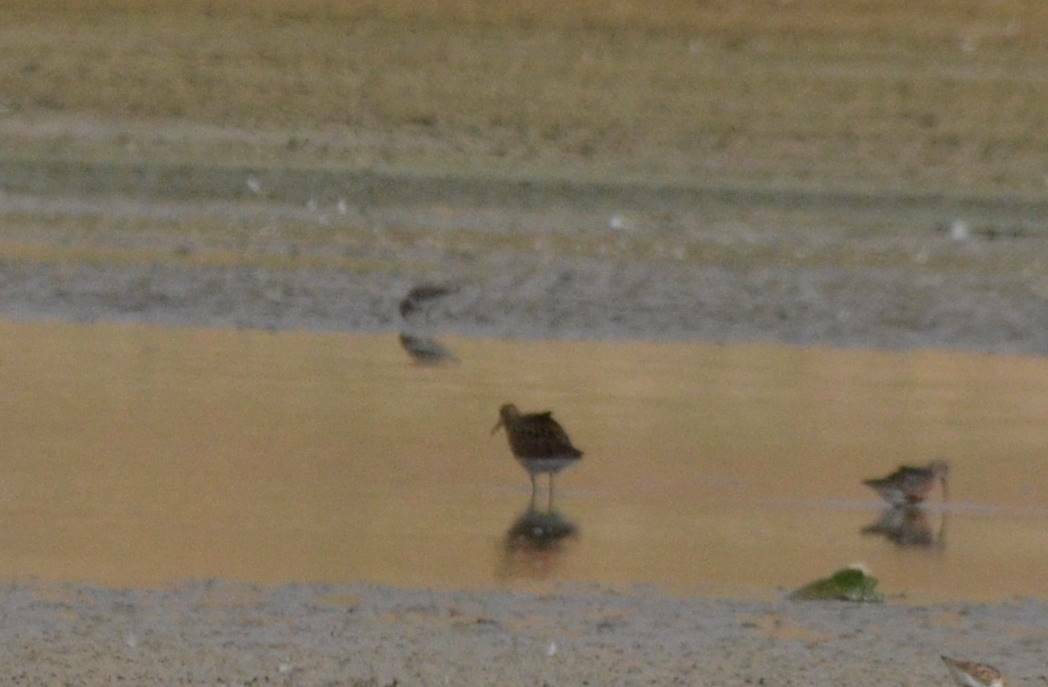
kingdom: Animalia
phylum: Chordata
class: Aves
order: Charadriiformes
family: Scolopacidae
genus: Calidris
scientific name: Calidris pugnax
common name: Ruff
